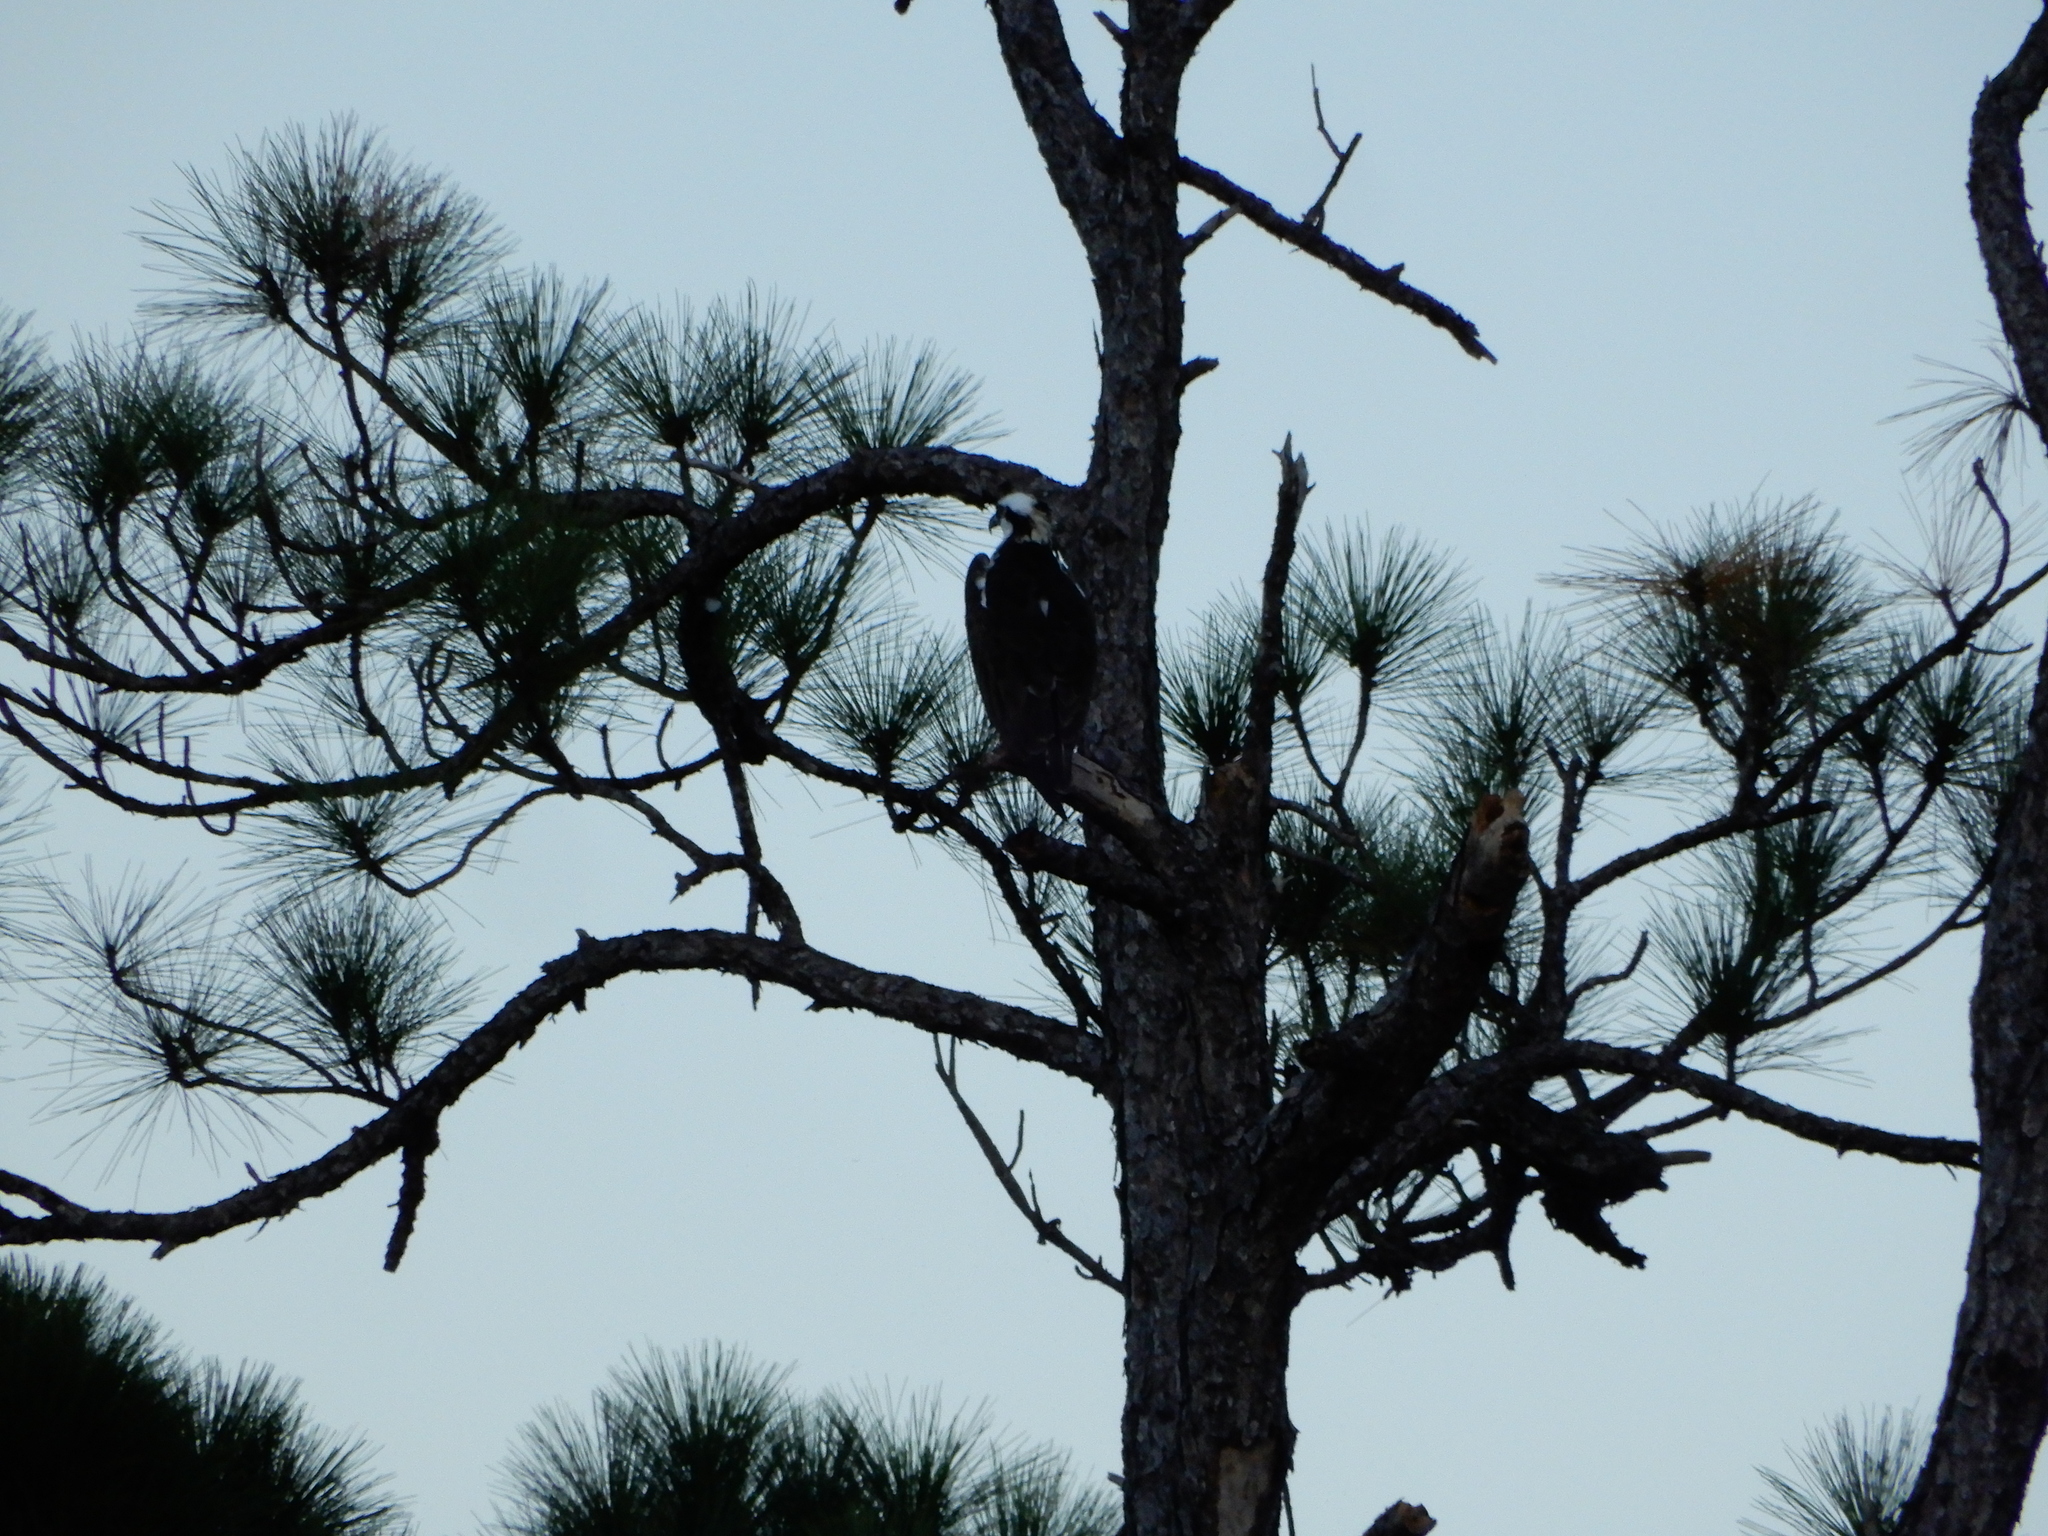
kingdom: Animalia
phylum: Chordata
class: Aves
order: Accipitriformes
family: Pandionidae
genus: Pandion
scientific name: Pandion haliaetus
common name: Osprey
